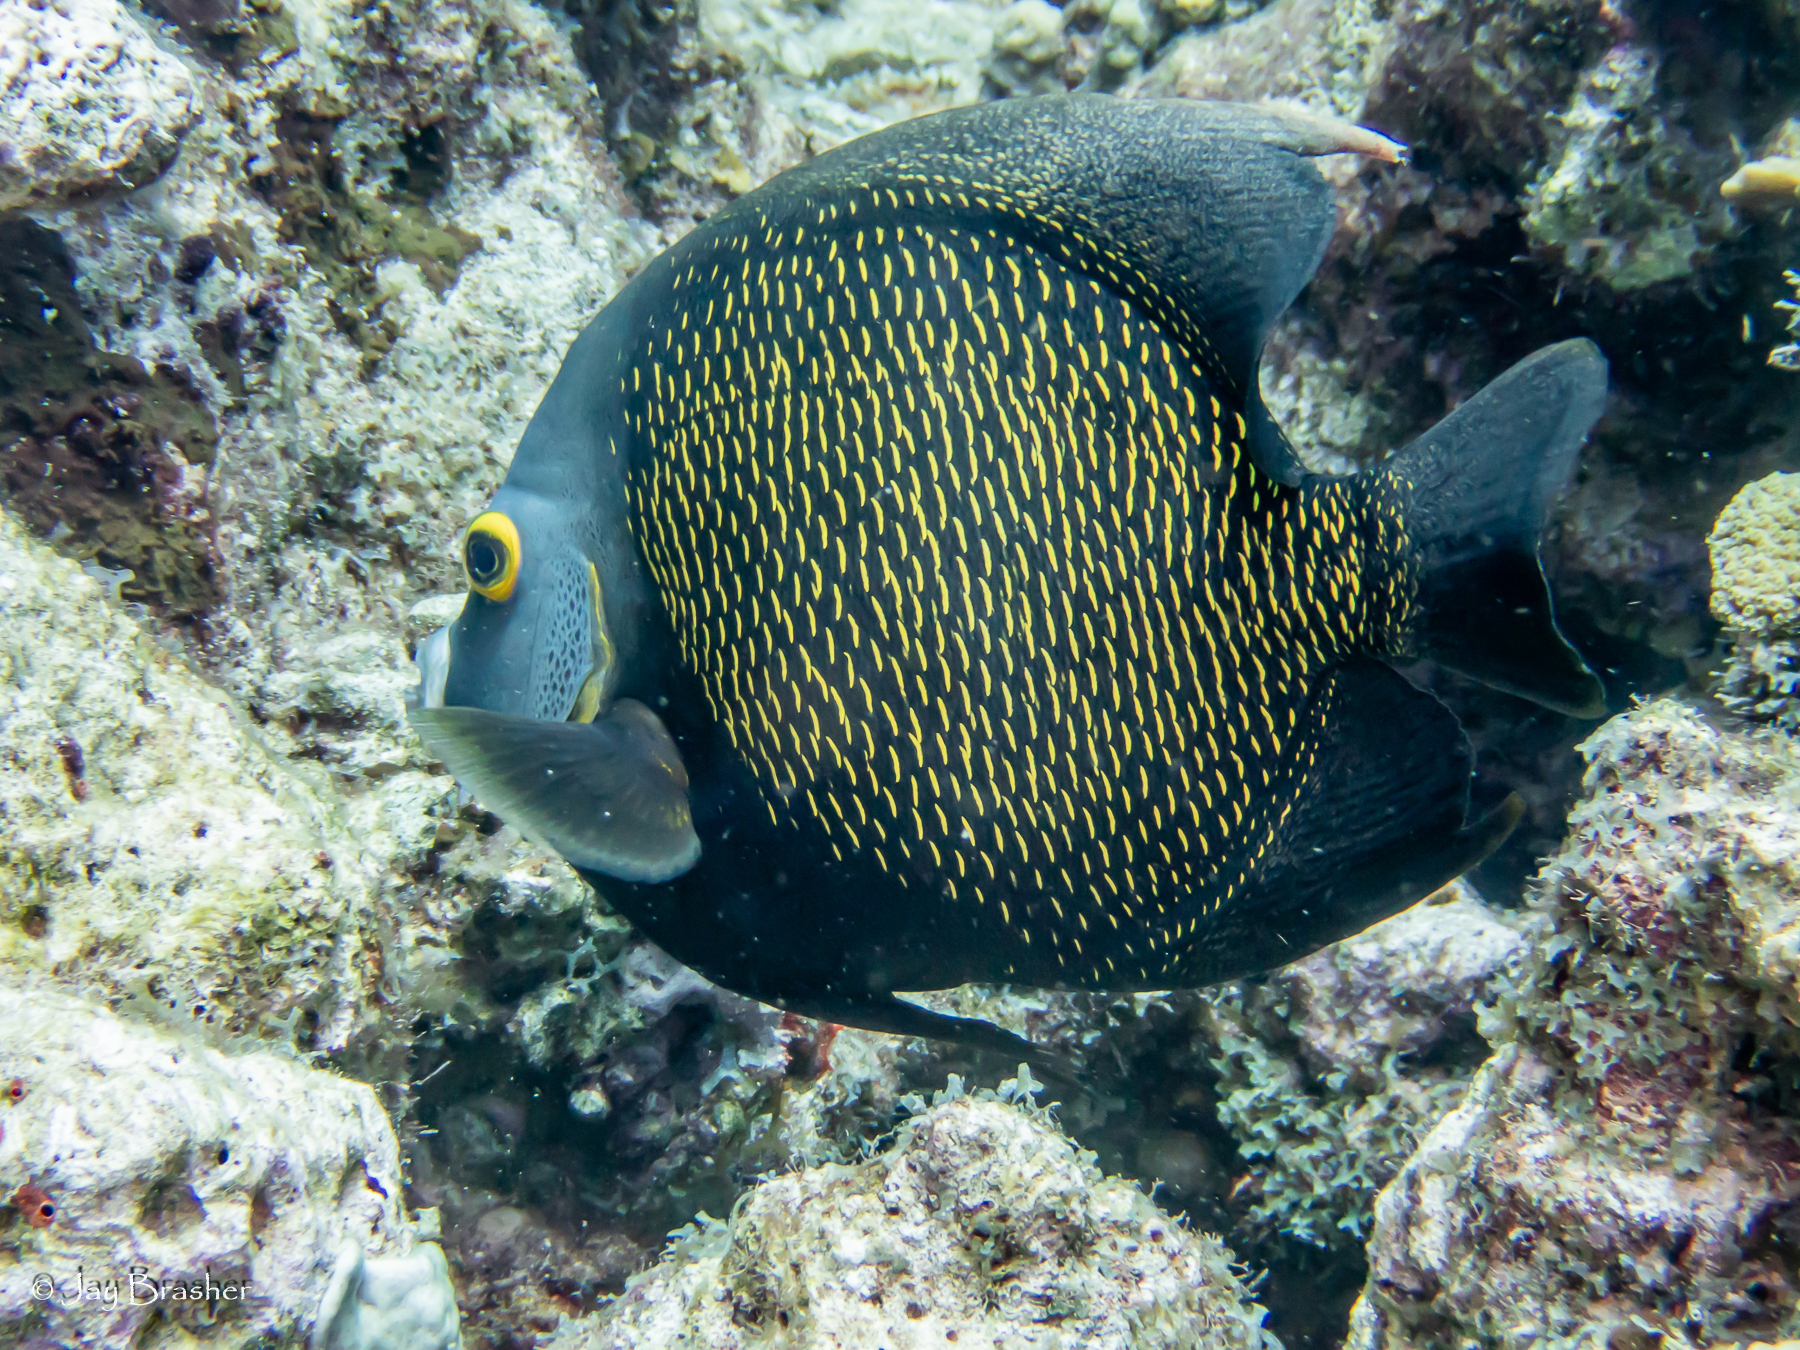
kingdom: Animalia
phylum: Chordata
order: Perciformes
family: Pomacanthidae
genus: Pomacanthus
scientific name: Pomacanthus paru
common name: French angelfish
